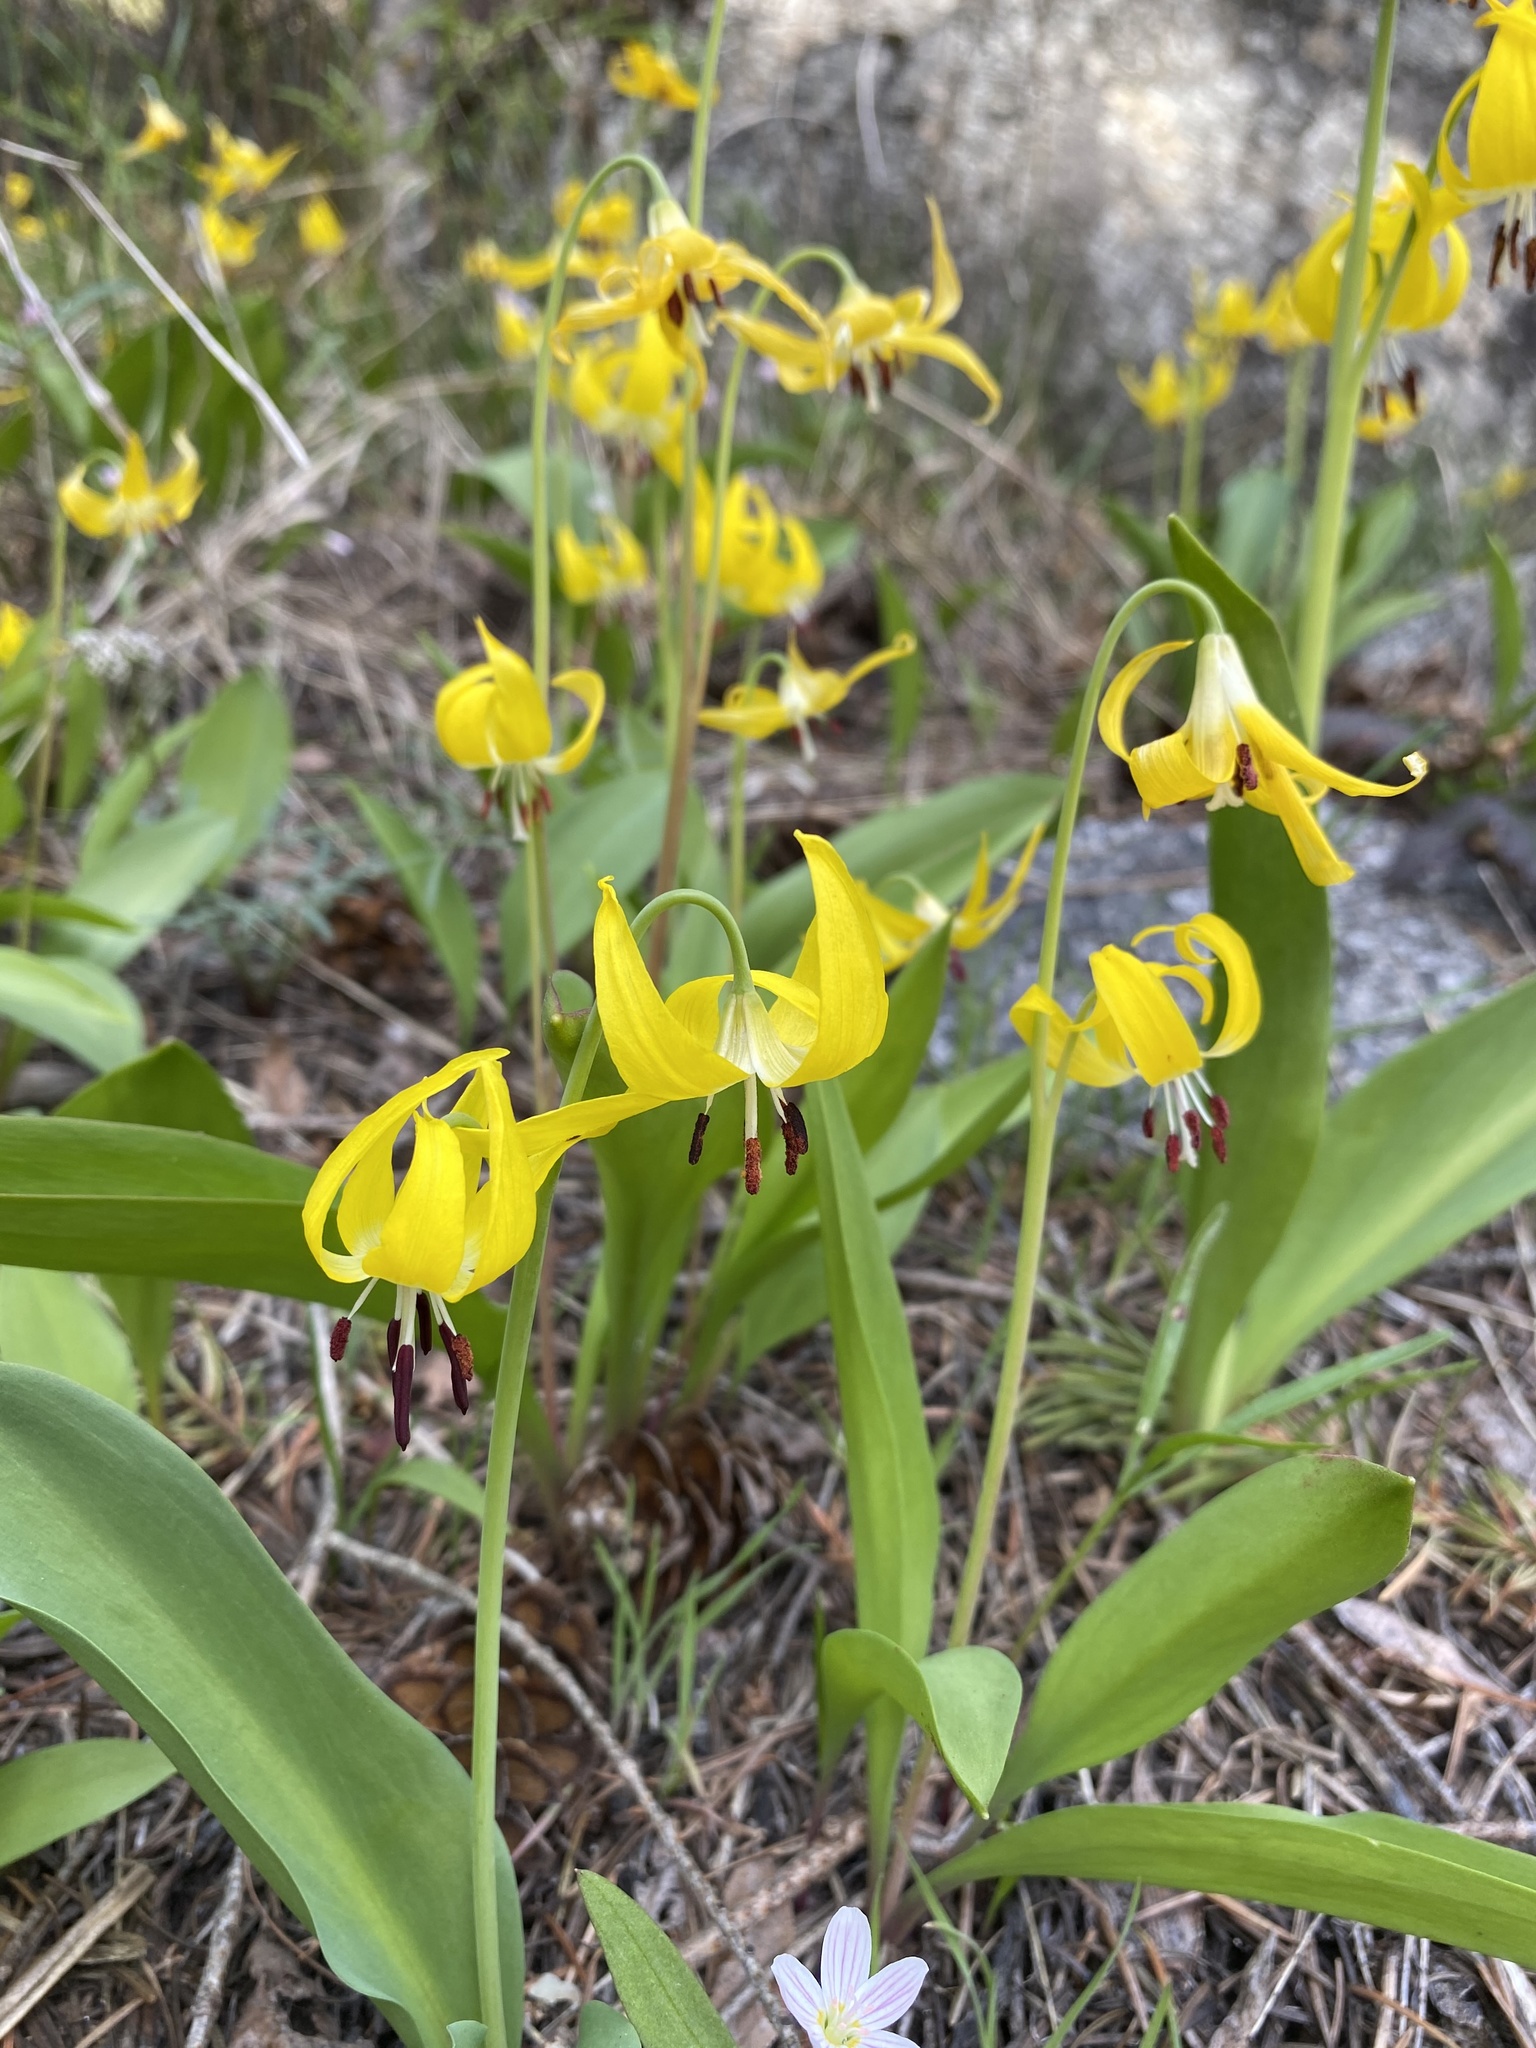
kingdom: Plantae
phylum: Tracheophyta
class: Liliopsida
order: Liliales
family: Liliaceae
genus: Erythronium
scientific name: Erythronium grandiflorum
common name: Avalanche-lily
